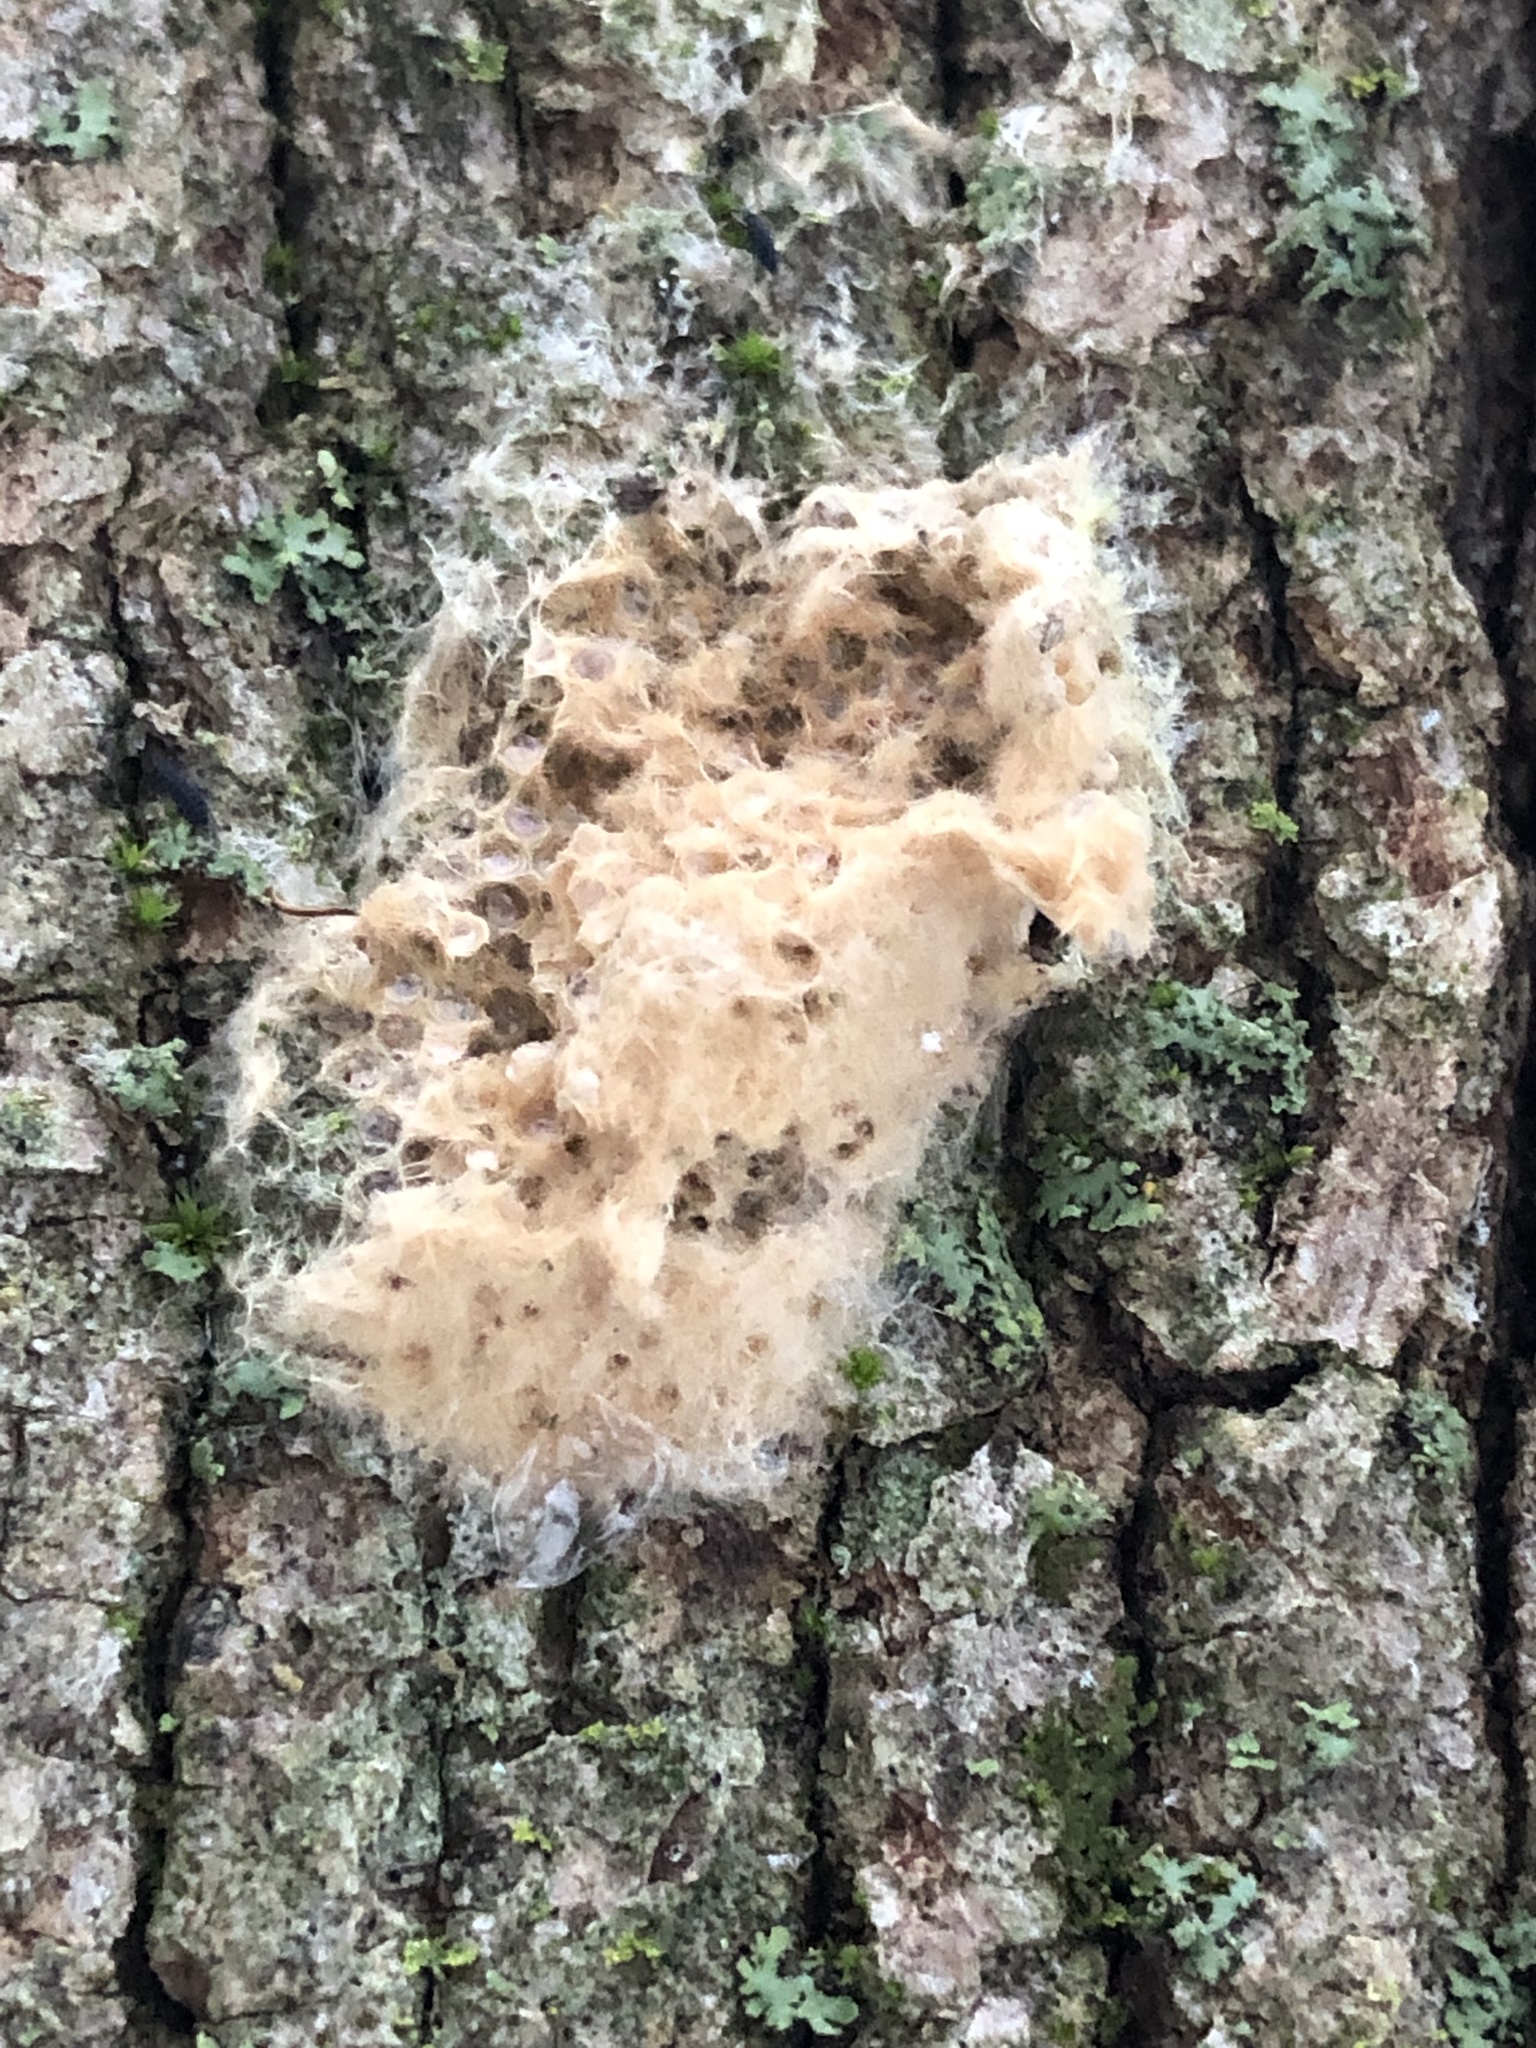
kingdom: Animalia
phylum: Arthropoda
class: Insecta
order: Lepidoptera
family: Erebidae
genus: Lymantria
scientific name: Lymantria dispar
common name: Gypsy moth
